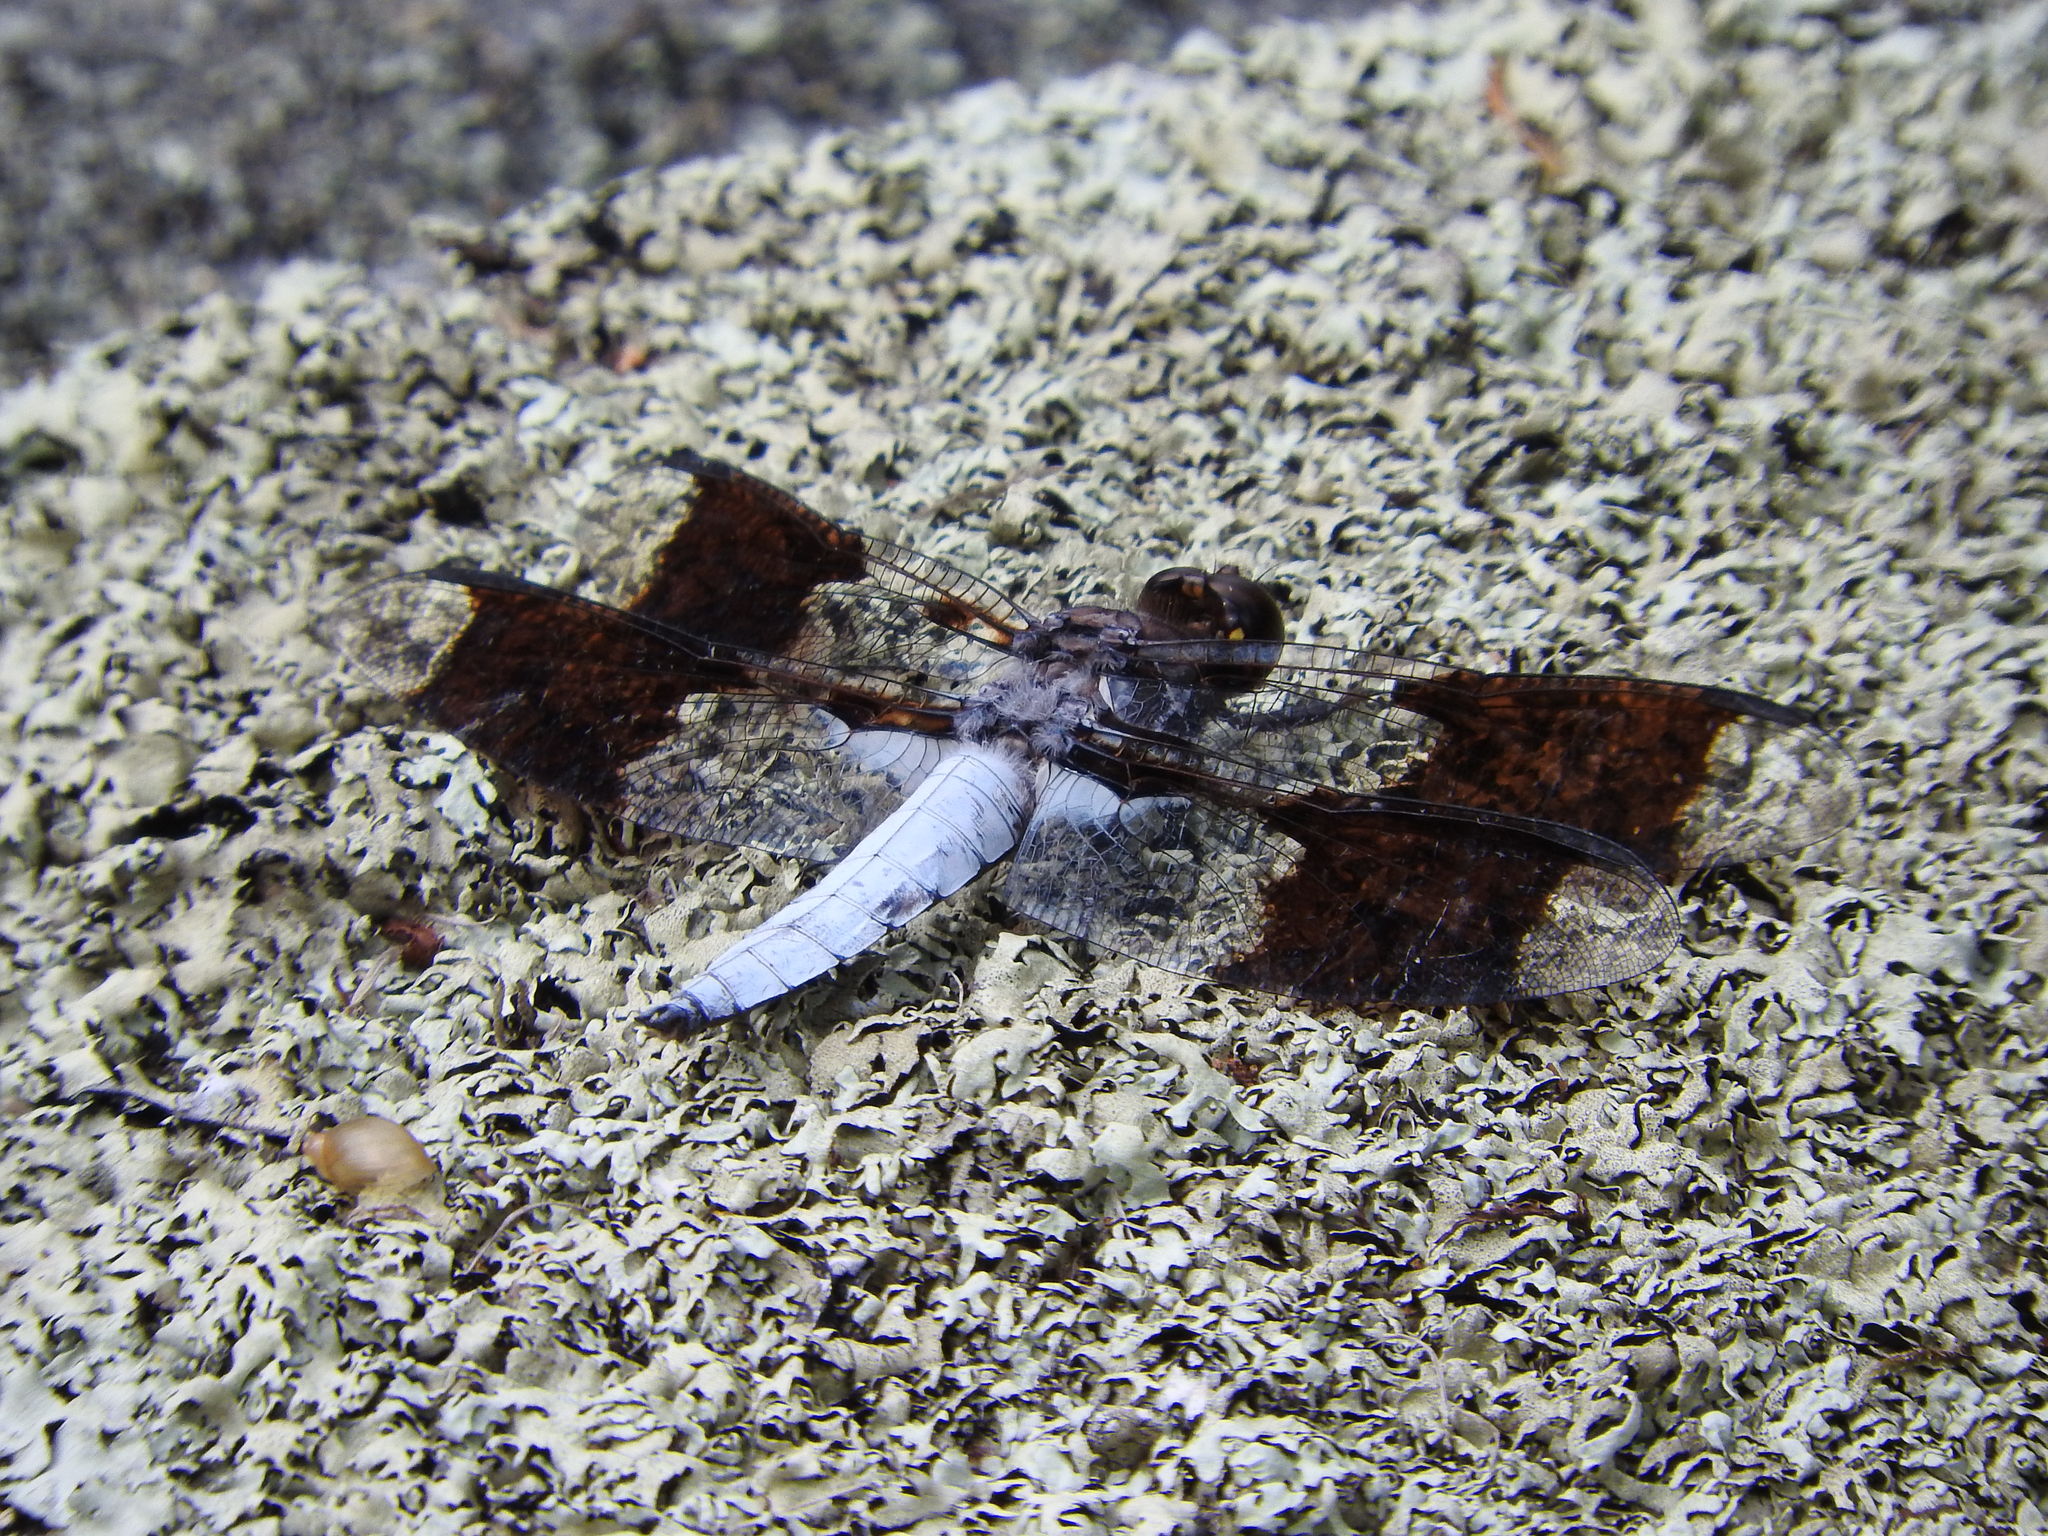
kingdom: Animalia
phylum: Arthropoda
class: Insecta
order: Odonata
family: Libellulidae
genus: Plathemis
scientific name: Plathemis lydia
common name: Common whitetail
